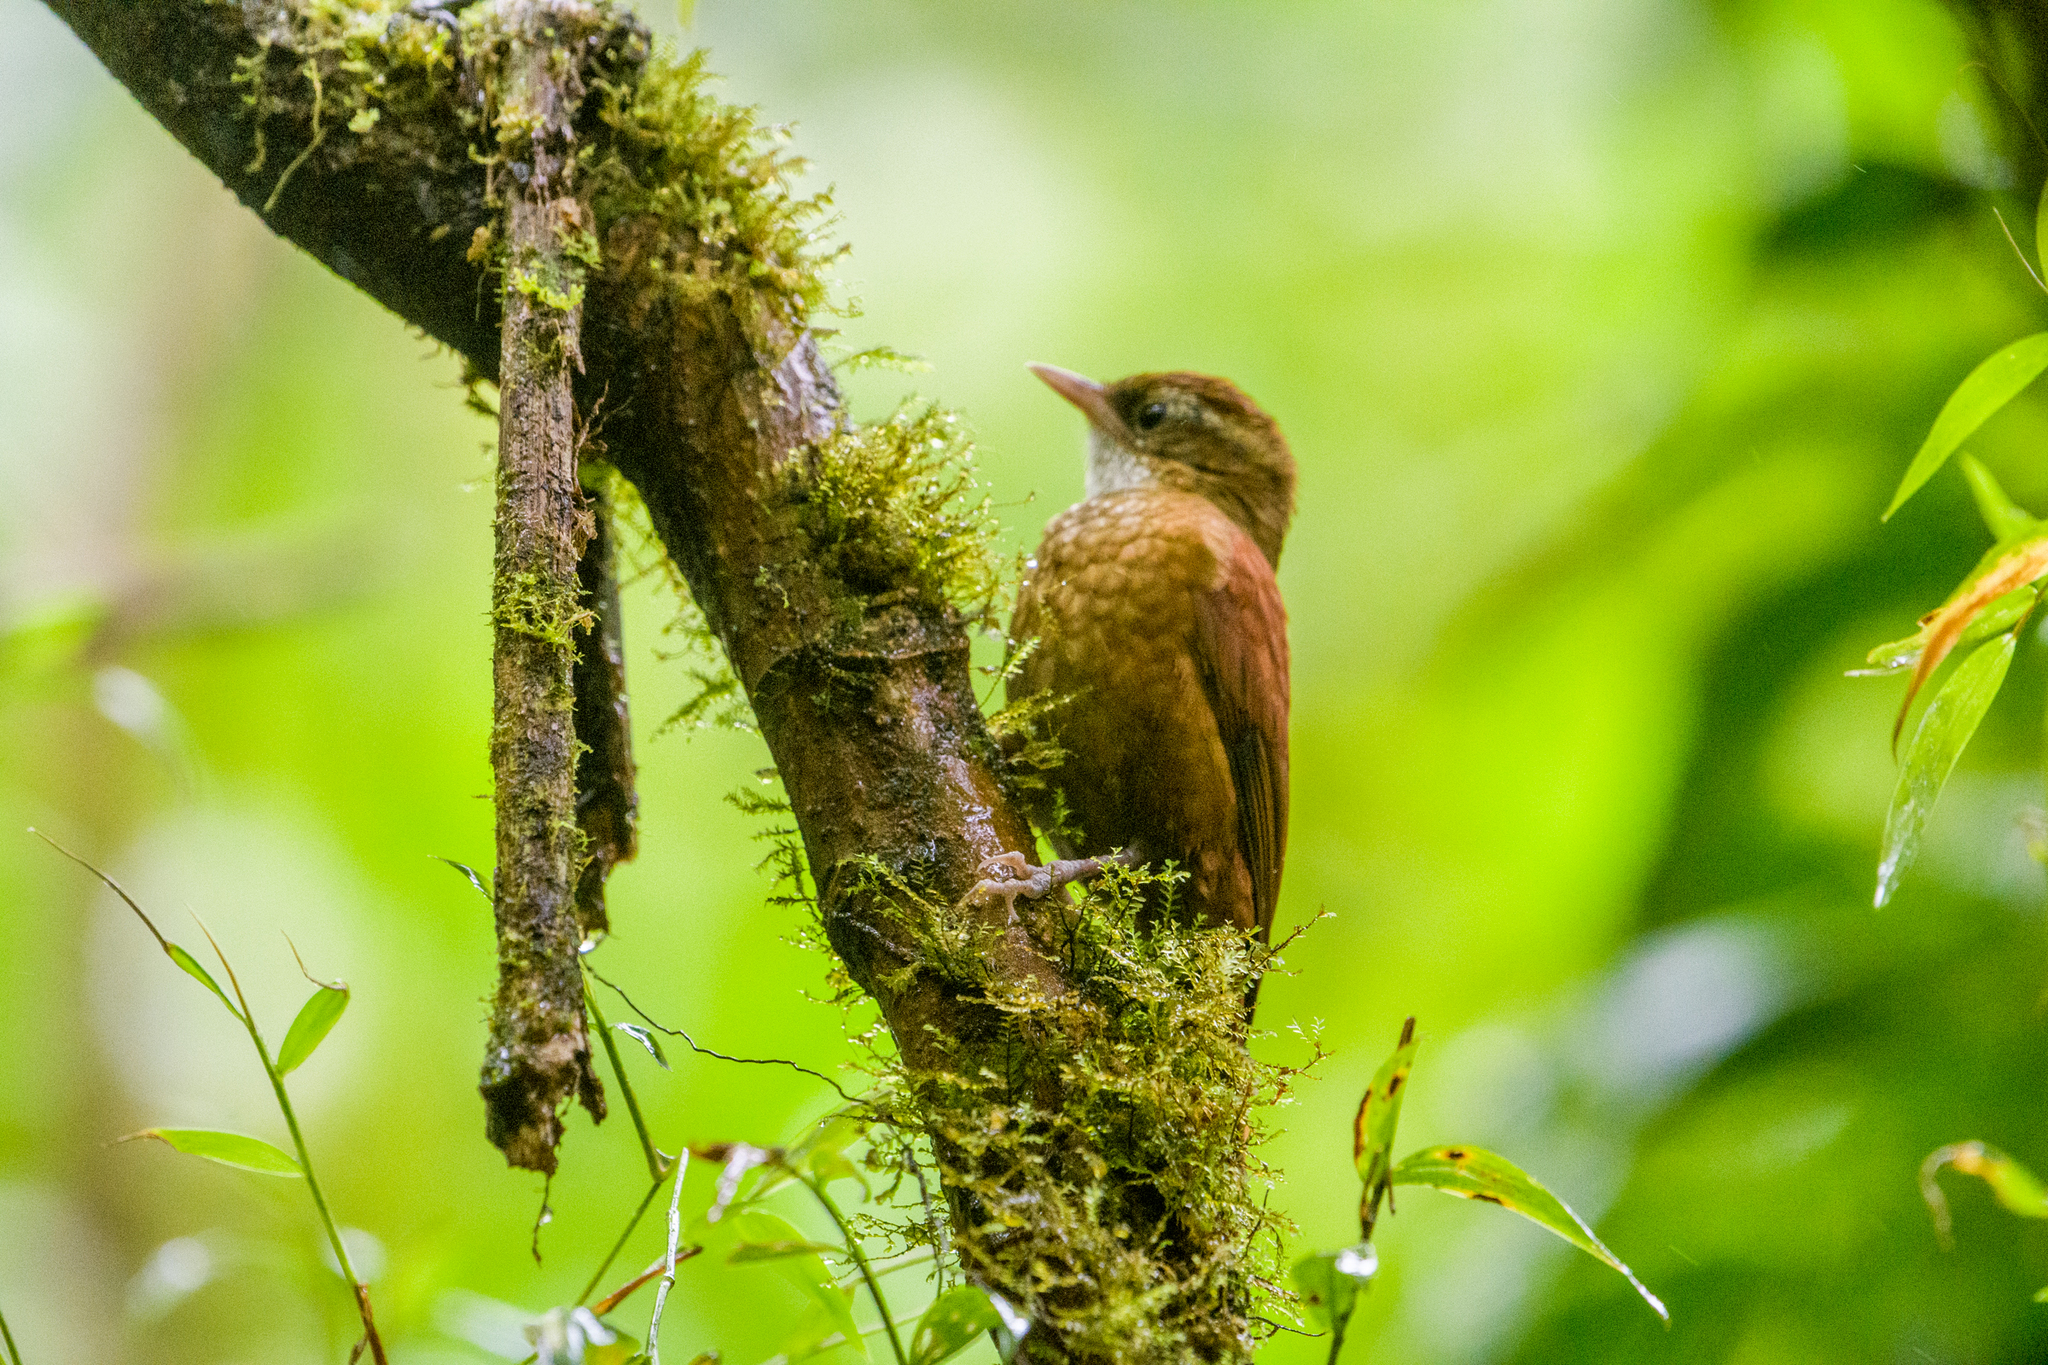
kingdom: Animalia
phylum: Chordata
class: Aves
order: Passeriformes
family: Furnariidae
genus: Margarornis
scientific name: Margarornis rubiginosus
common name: Ruddy treerunner
